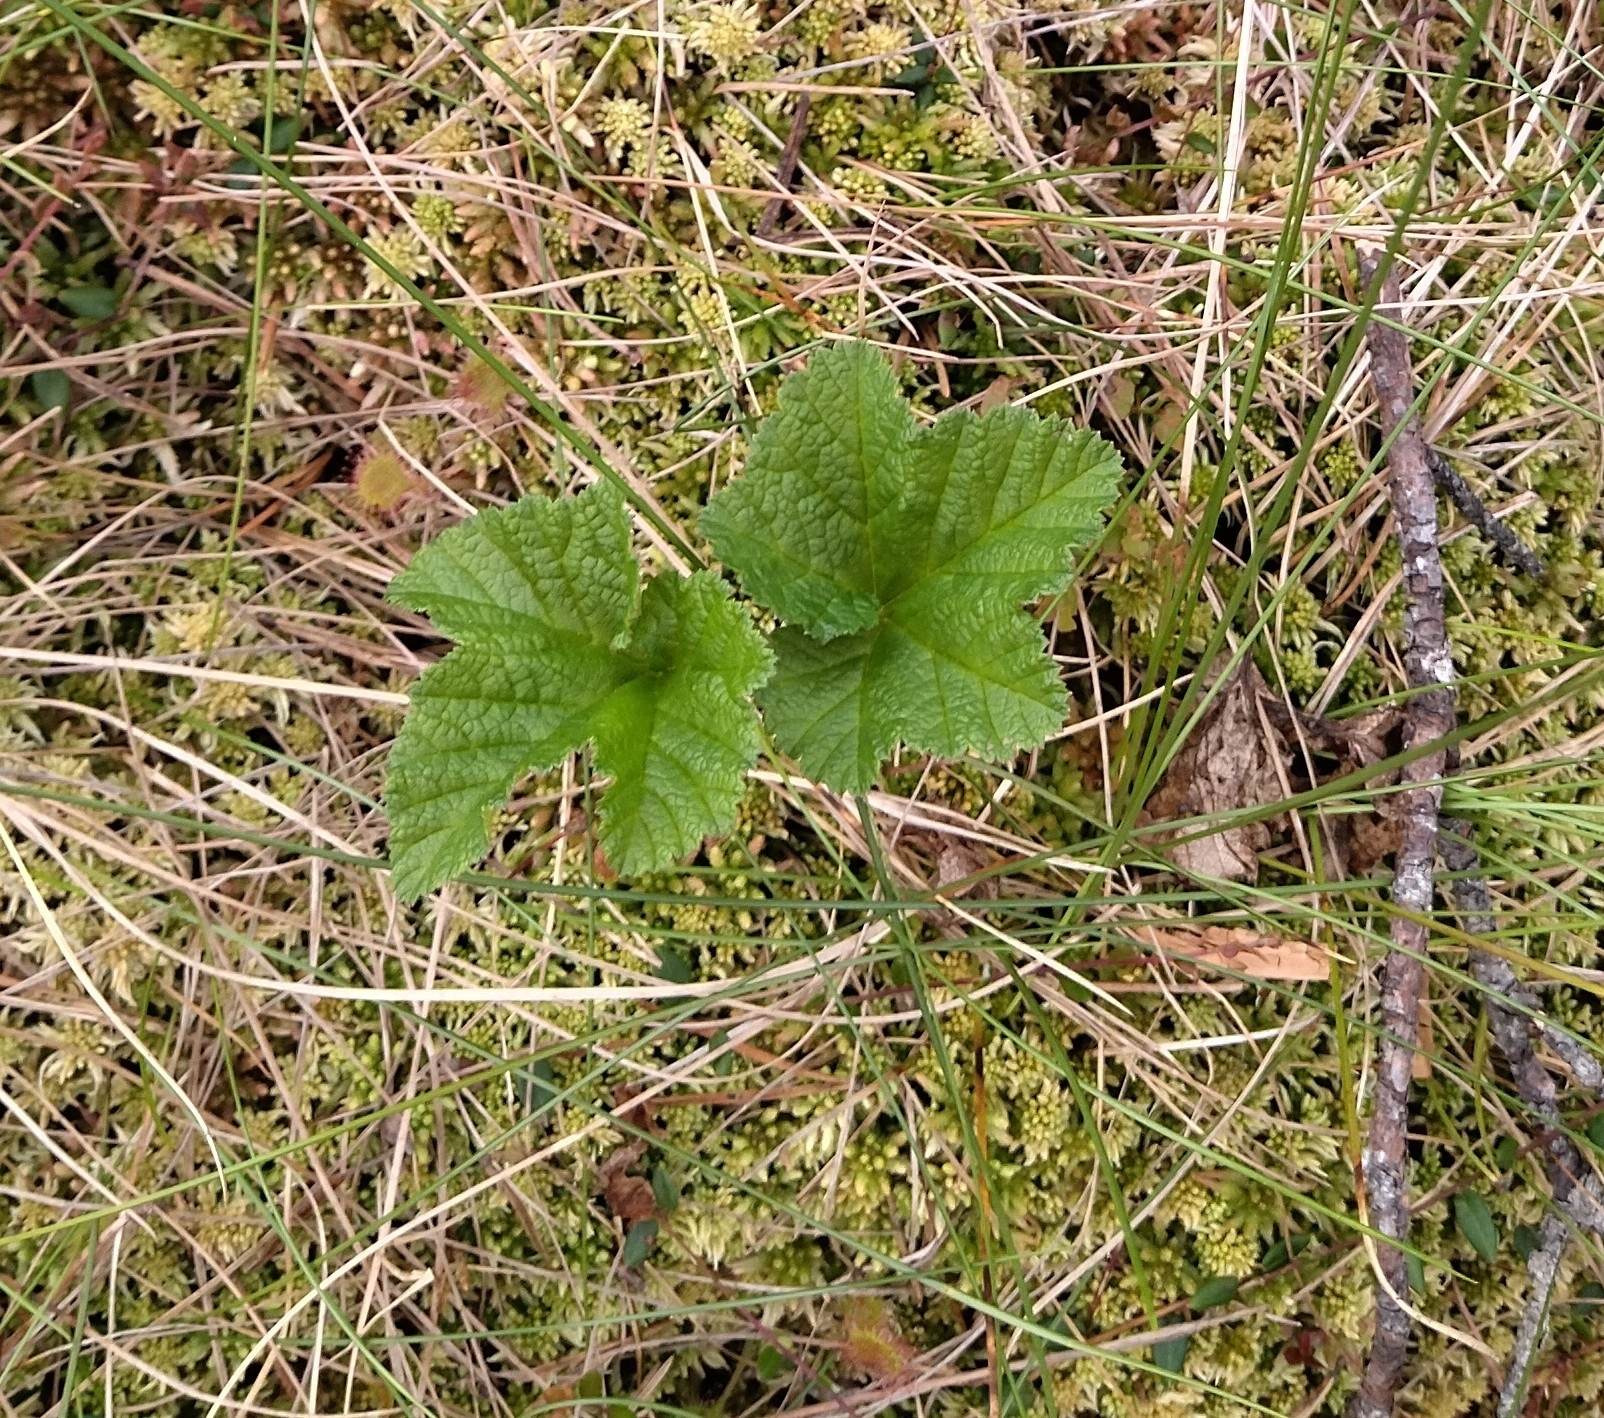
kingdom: Plantae
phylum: Tracheophyta
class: Magnoliopsida
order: Rosales
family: Rosaceae
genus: Rubus
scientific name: Rubus chamaemorus
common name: Cloudberry
